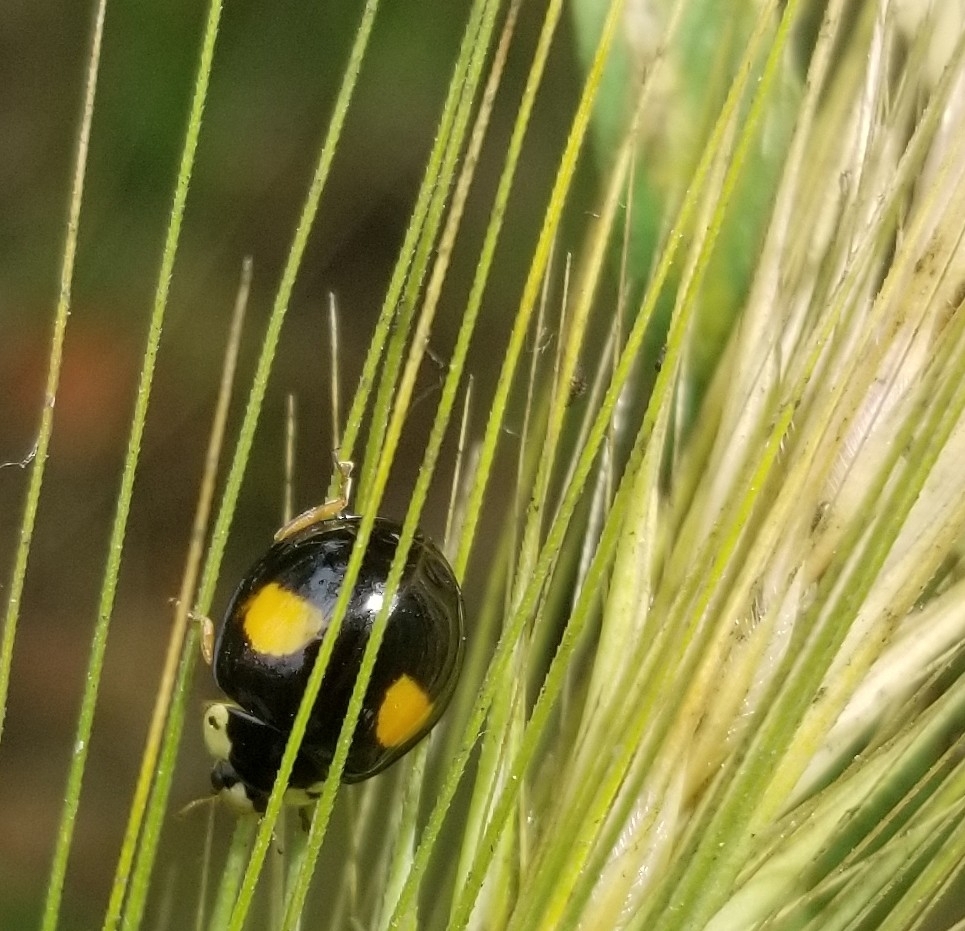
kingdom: Animalia
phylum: Arthropoda
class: Insecta
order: Coleoptera
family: Coccinellidae
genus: Harmonia
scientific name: Harmonia axyridis
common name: Harlequin ladybird
